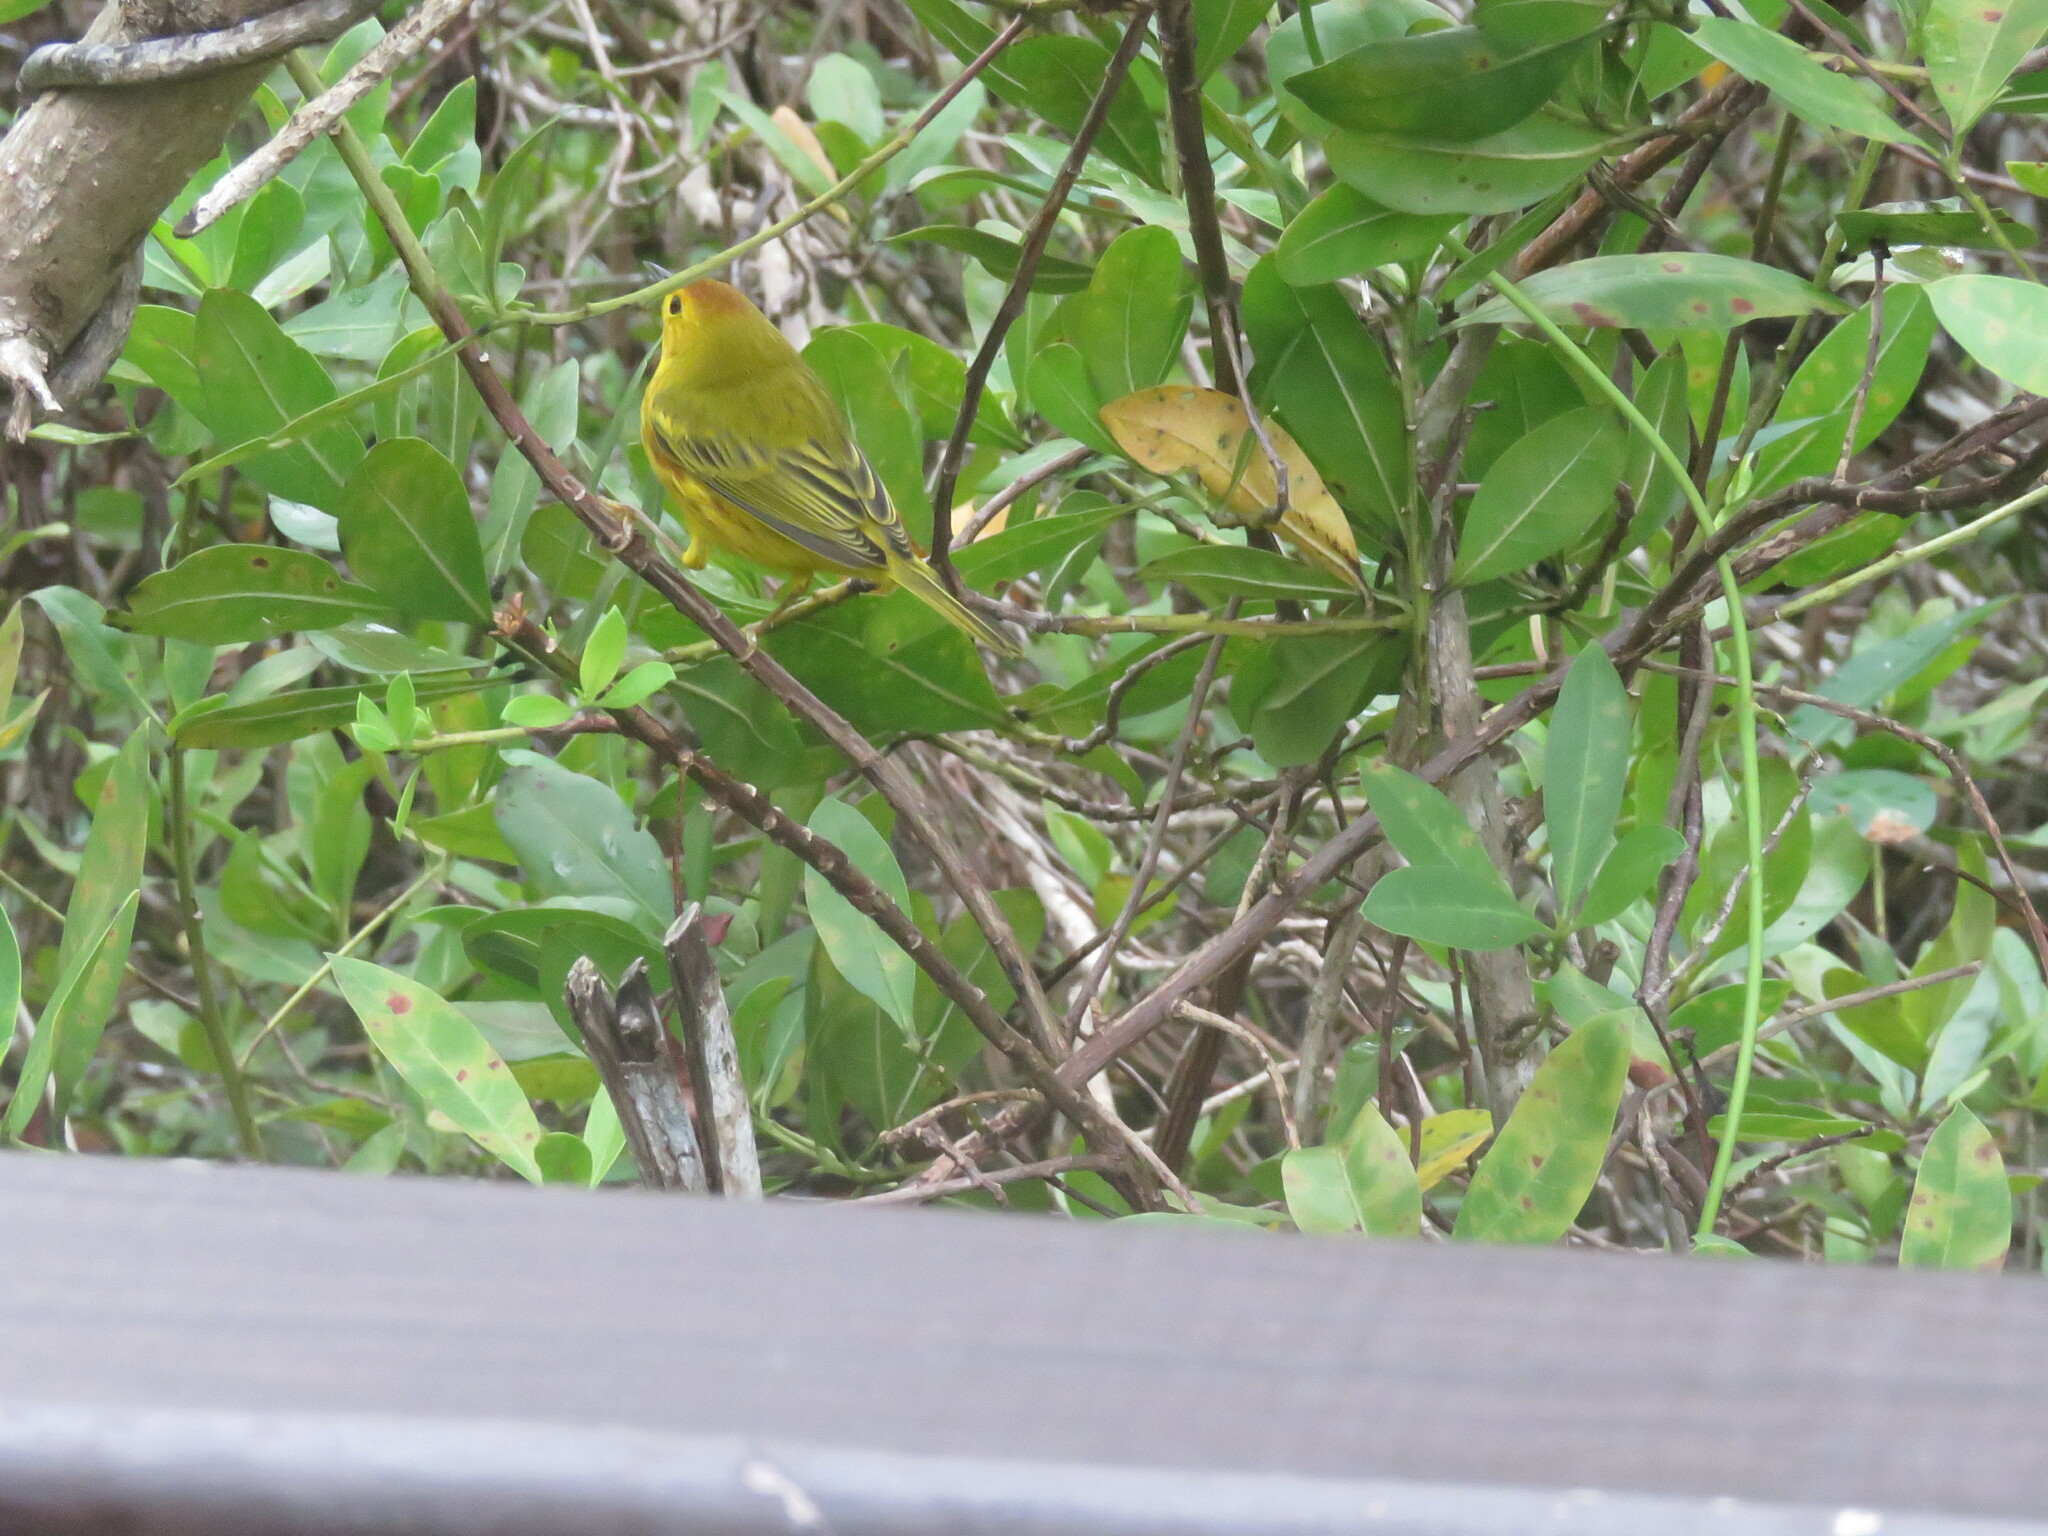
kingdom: Animalia
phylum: Chordata
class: Aves
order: Passeriformes
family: Parulidae
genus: Setophaga
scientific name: Setophaga petechia
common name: Yellow warbler
